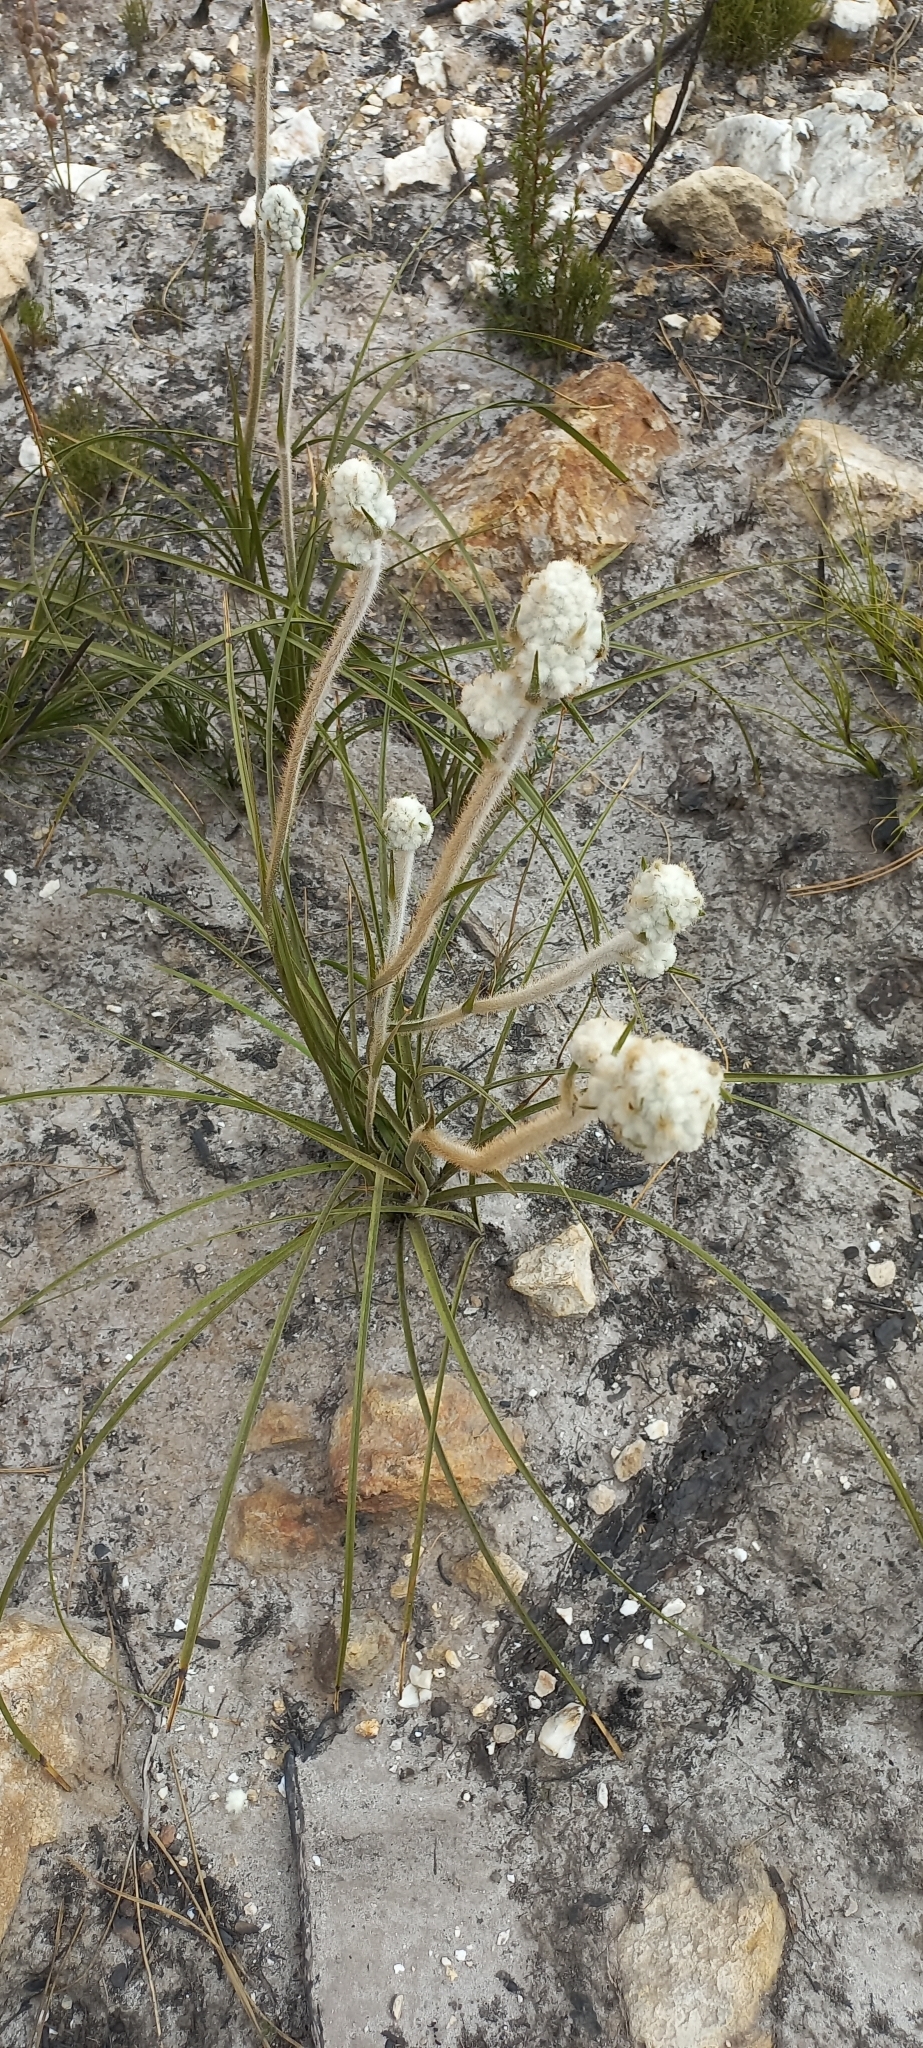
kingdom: Plantae
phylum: Tracheophyta
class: Liliopsida
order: Asparagales
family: Lanariaceae
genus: Lanaria
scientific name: Lanaria lanata
